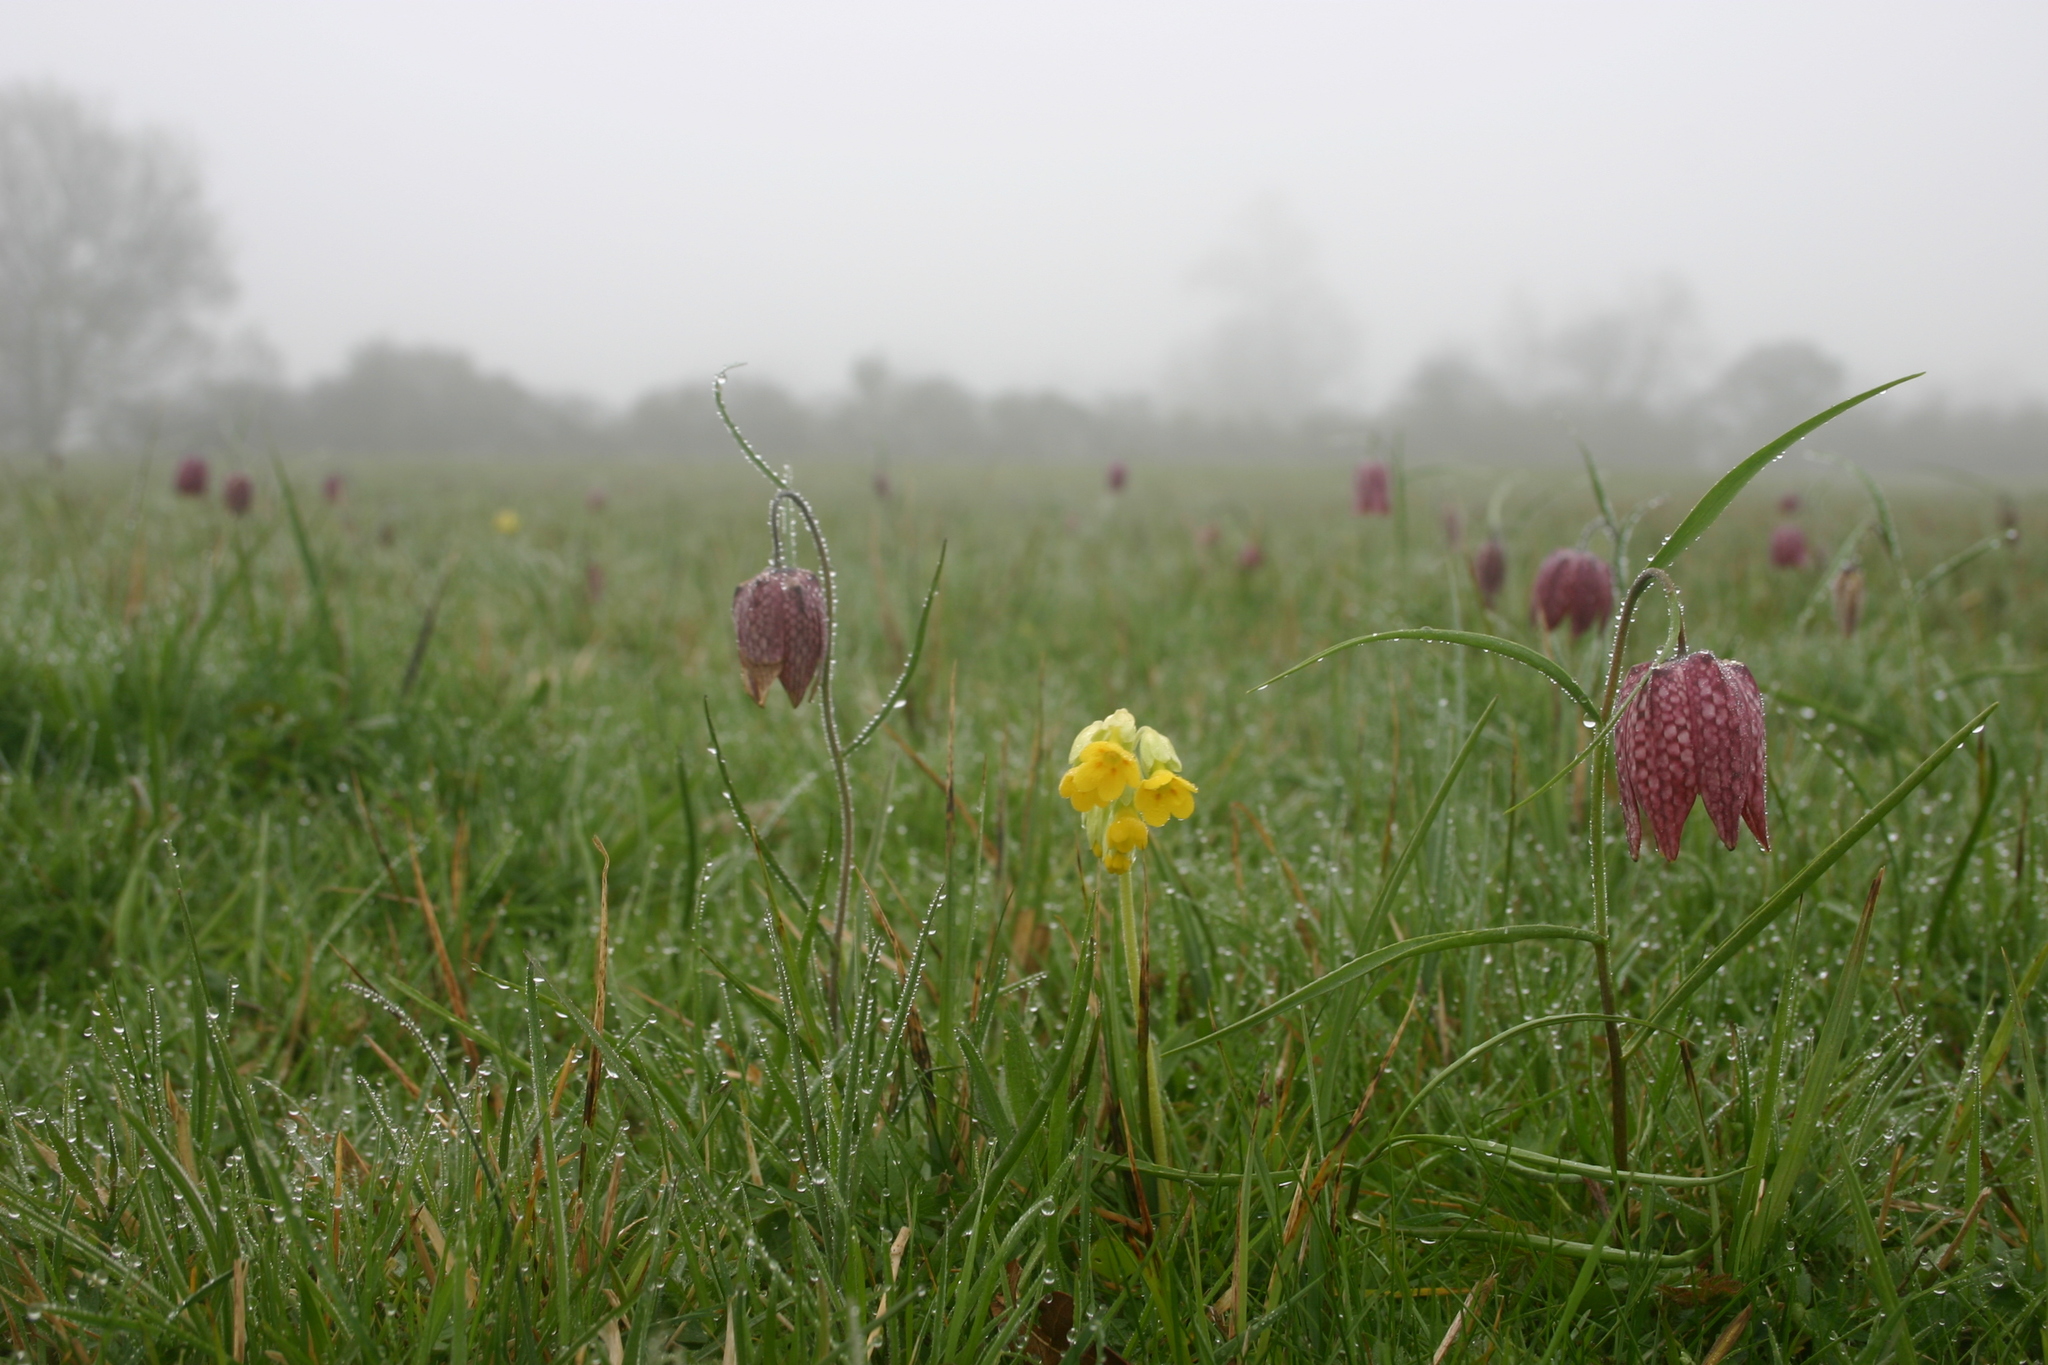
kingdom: Plantae
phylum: Tracheophyta
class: Magnoliopsida
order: Ericales
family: Primulaceae
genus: Primula
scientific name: Primula veris
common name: Cowslip
